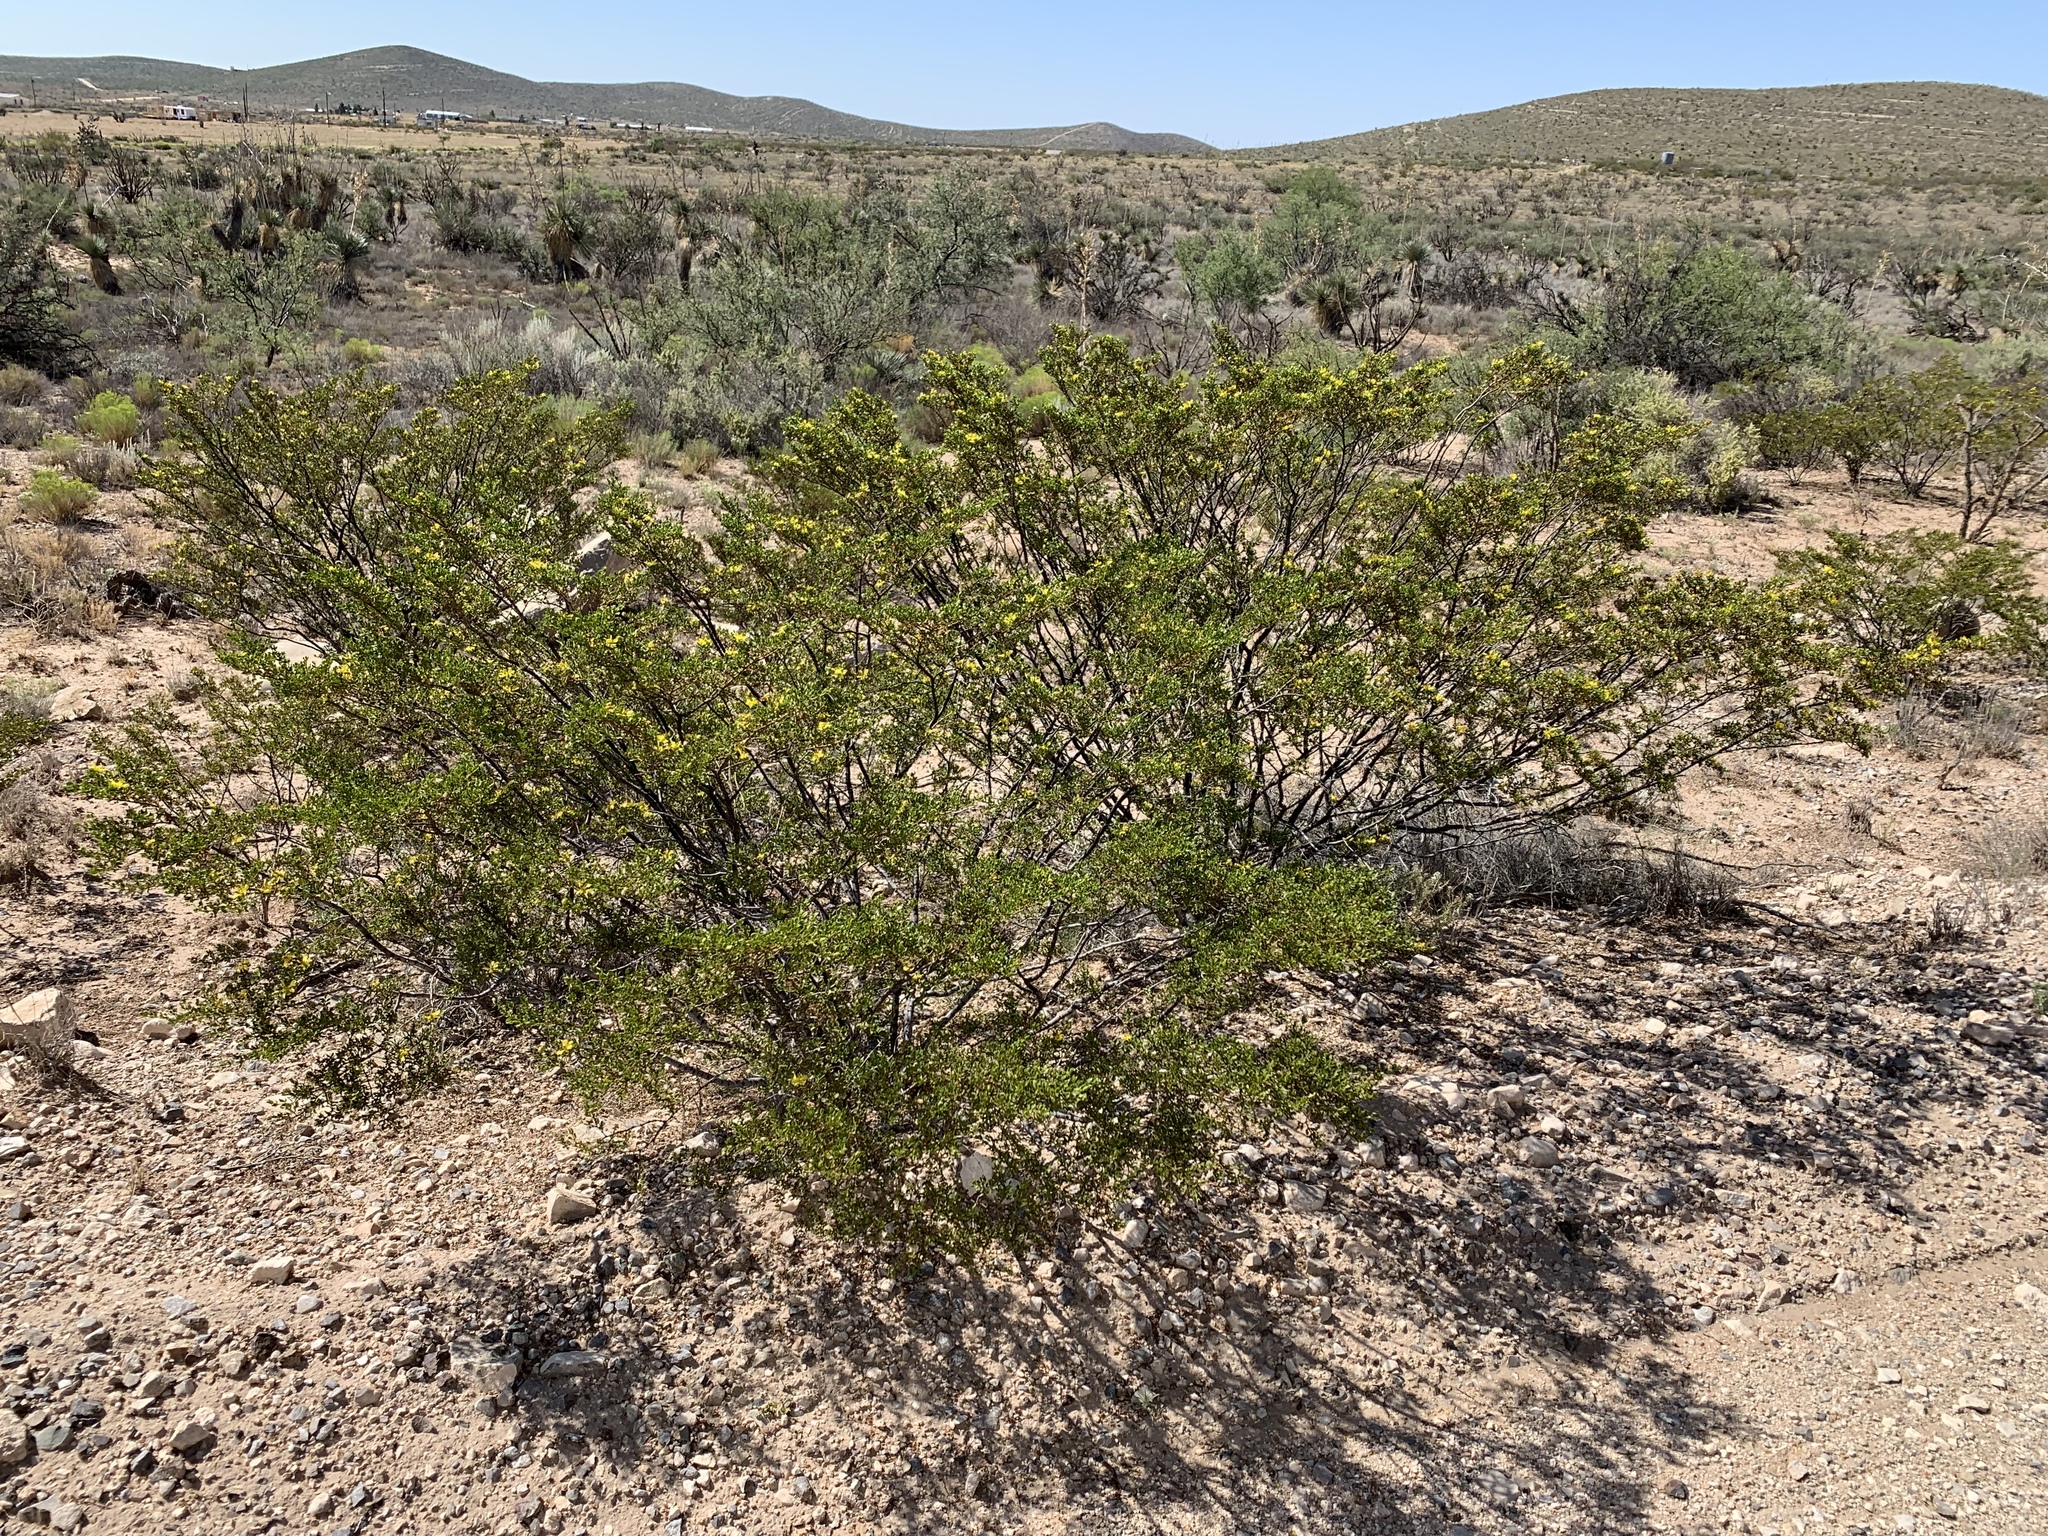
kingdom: Plantae
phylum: Tracheophyta
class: Magnoliopsida
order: Zygophyllales
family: Zygophyllaceae
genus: Larrea
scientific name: Larrea tridentata
